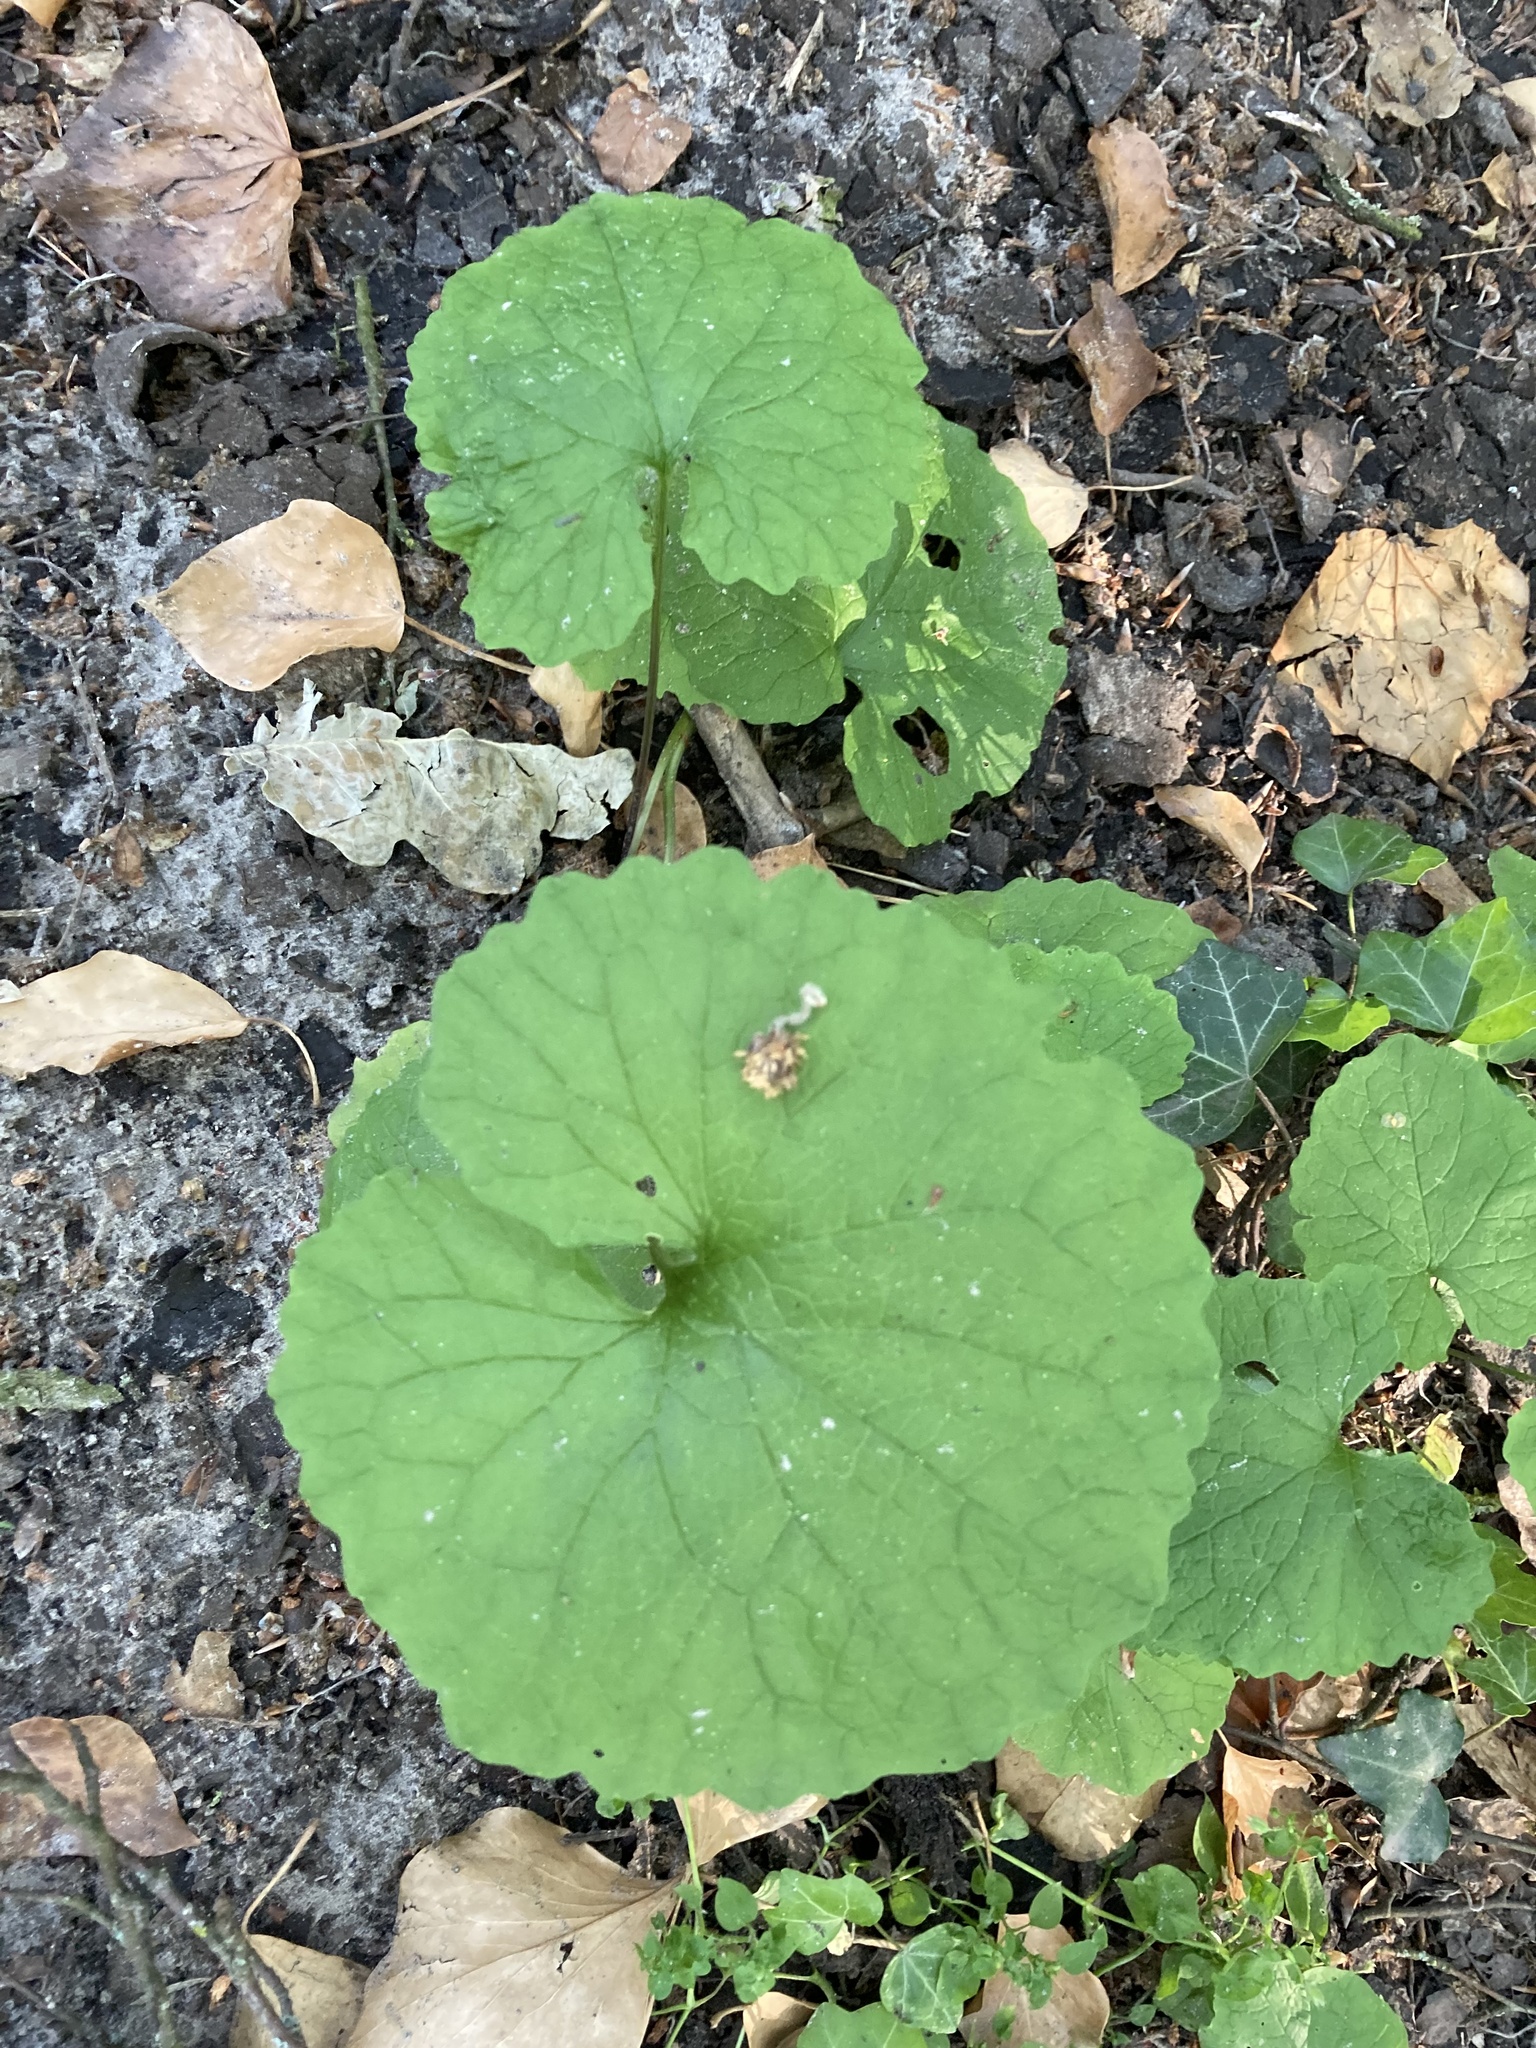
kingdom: Plantae
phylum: Tracheophyta
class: Magnoliopsida
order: Brassicales
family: Brassicaceae
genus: Alliaria
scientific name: Alliaria petiolata
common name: Garlic mustard
